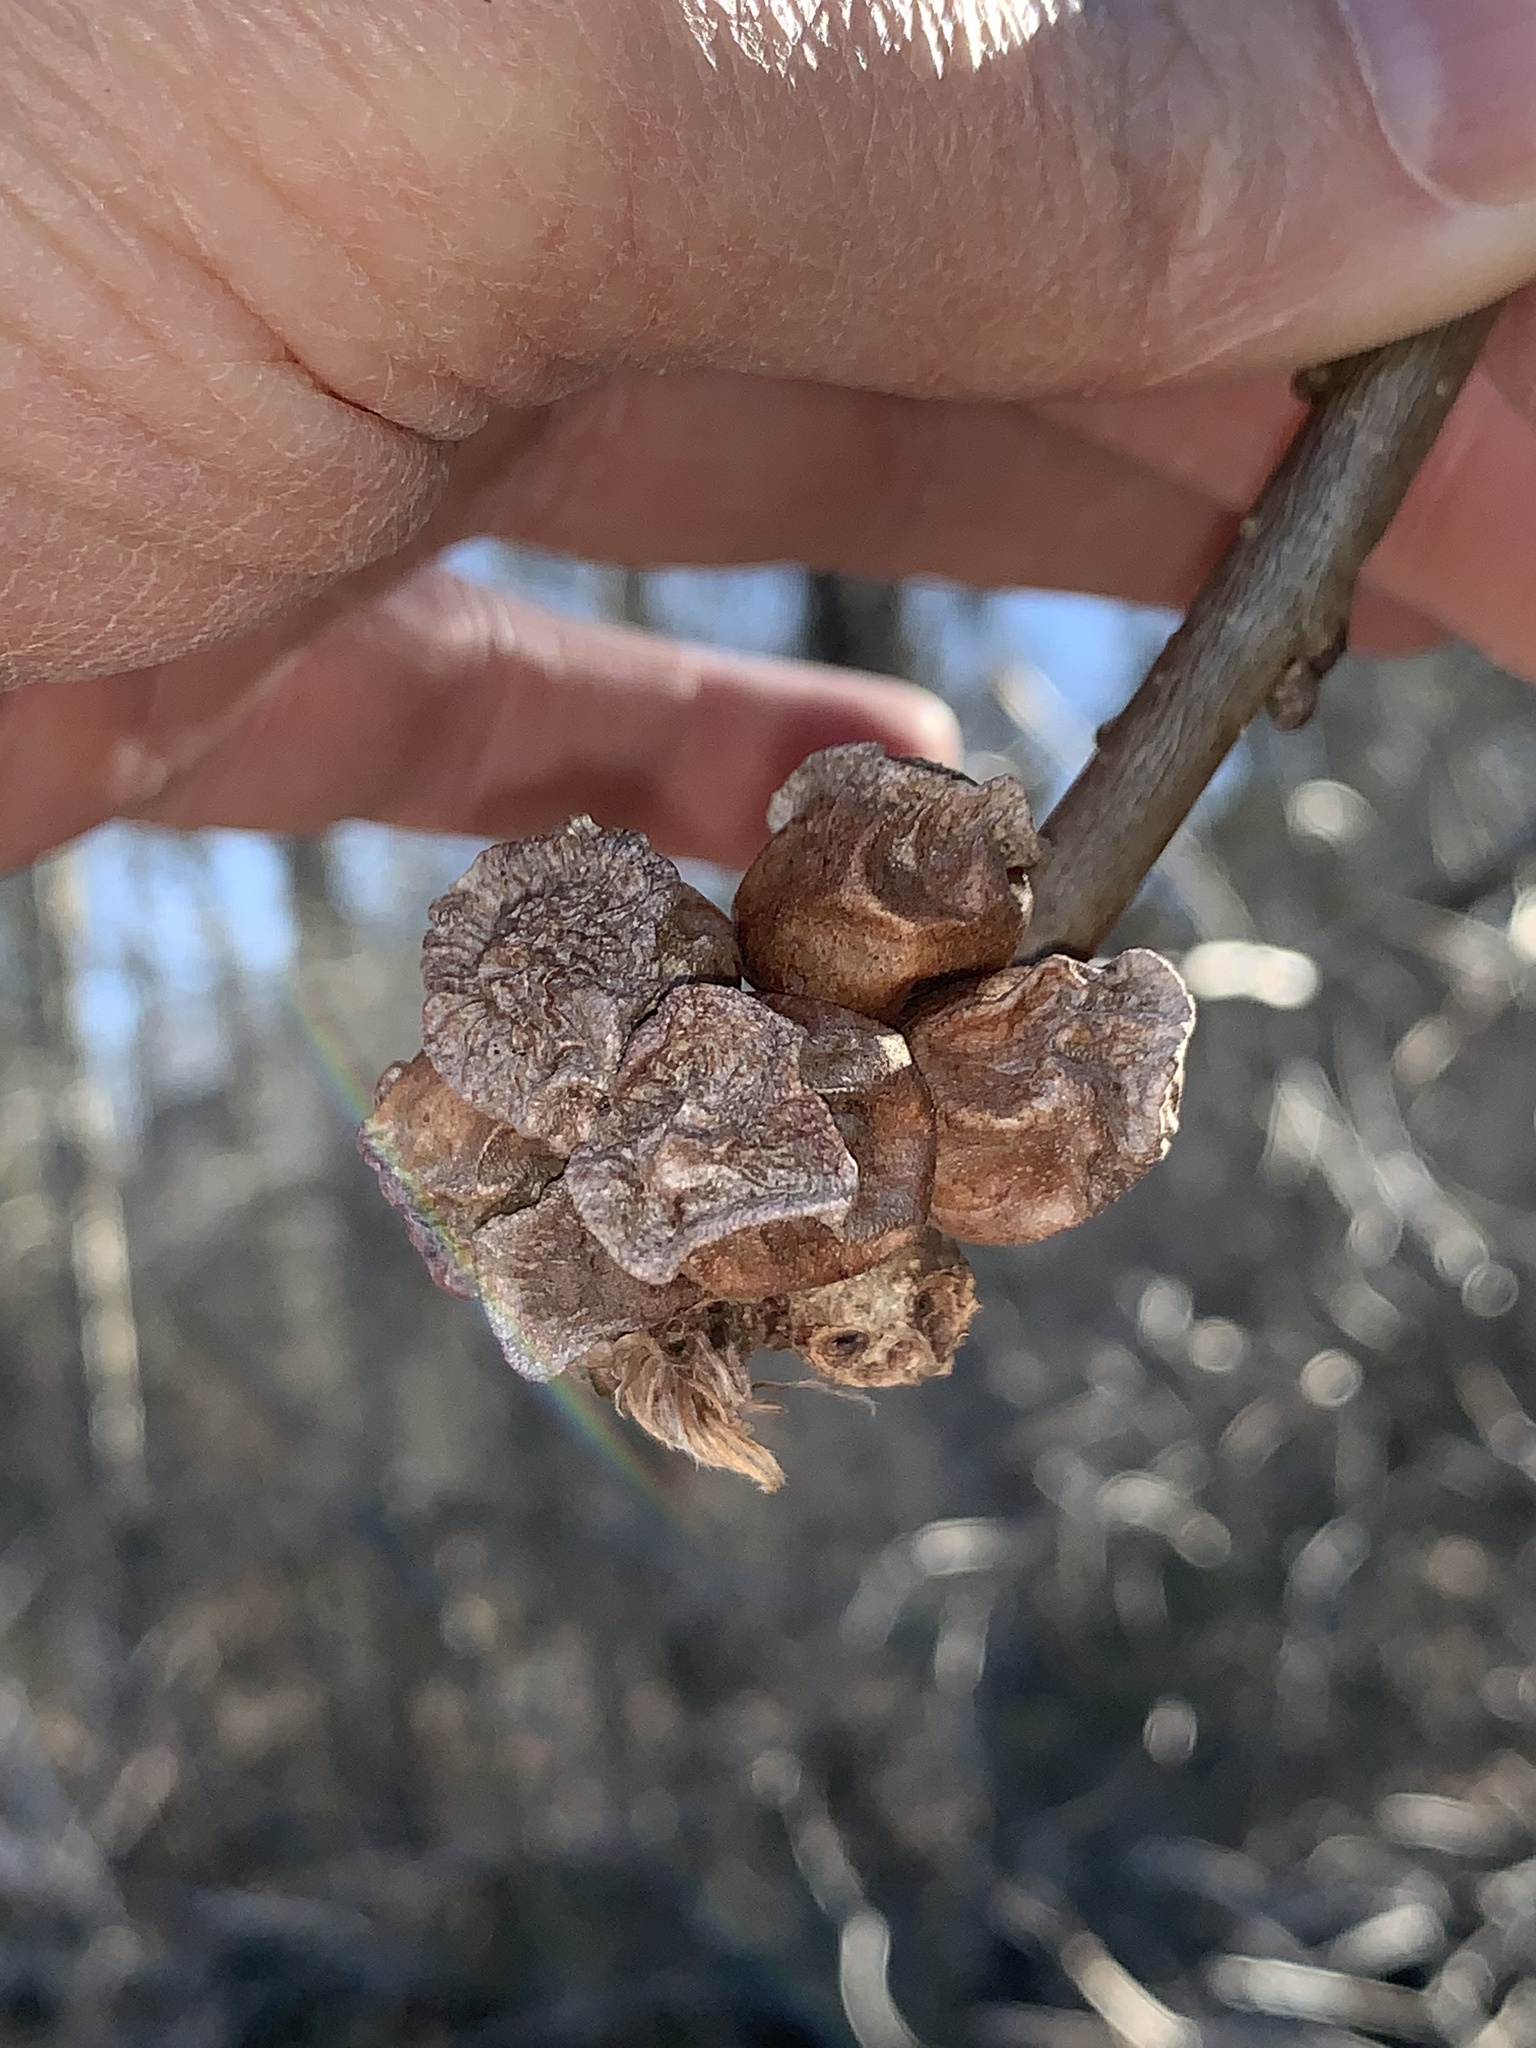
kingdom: Animalia
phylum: Arthropoda
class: Insecta
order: Hymenoptera
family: Cynipidae
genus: Andricus
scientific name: Andricus
